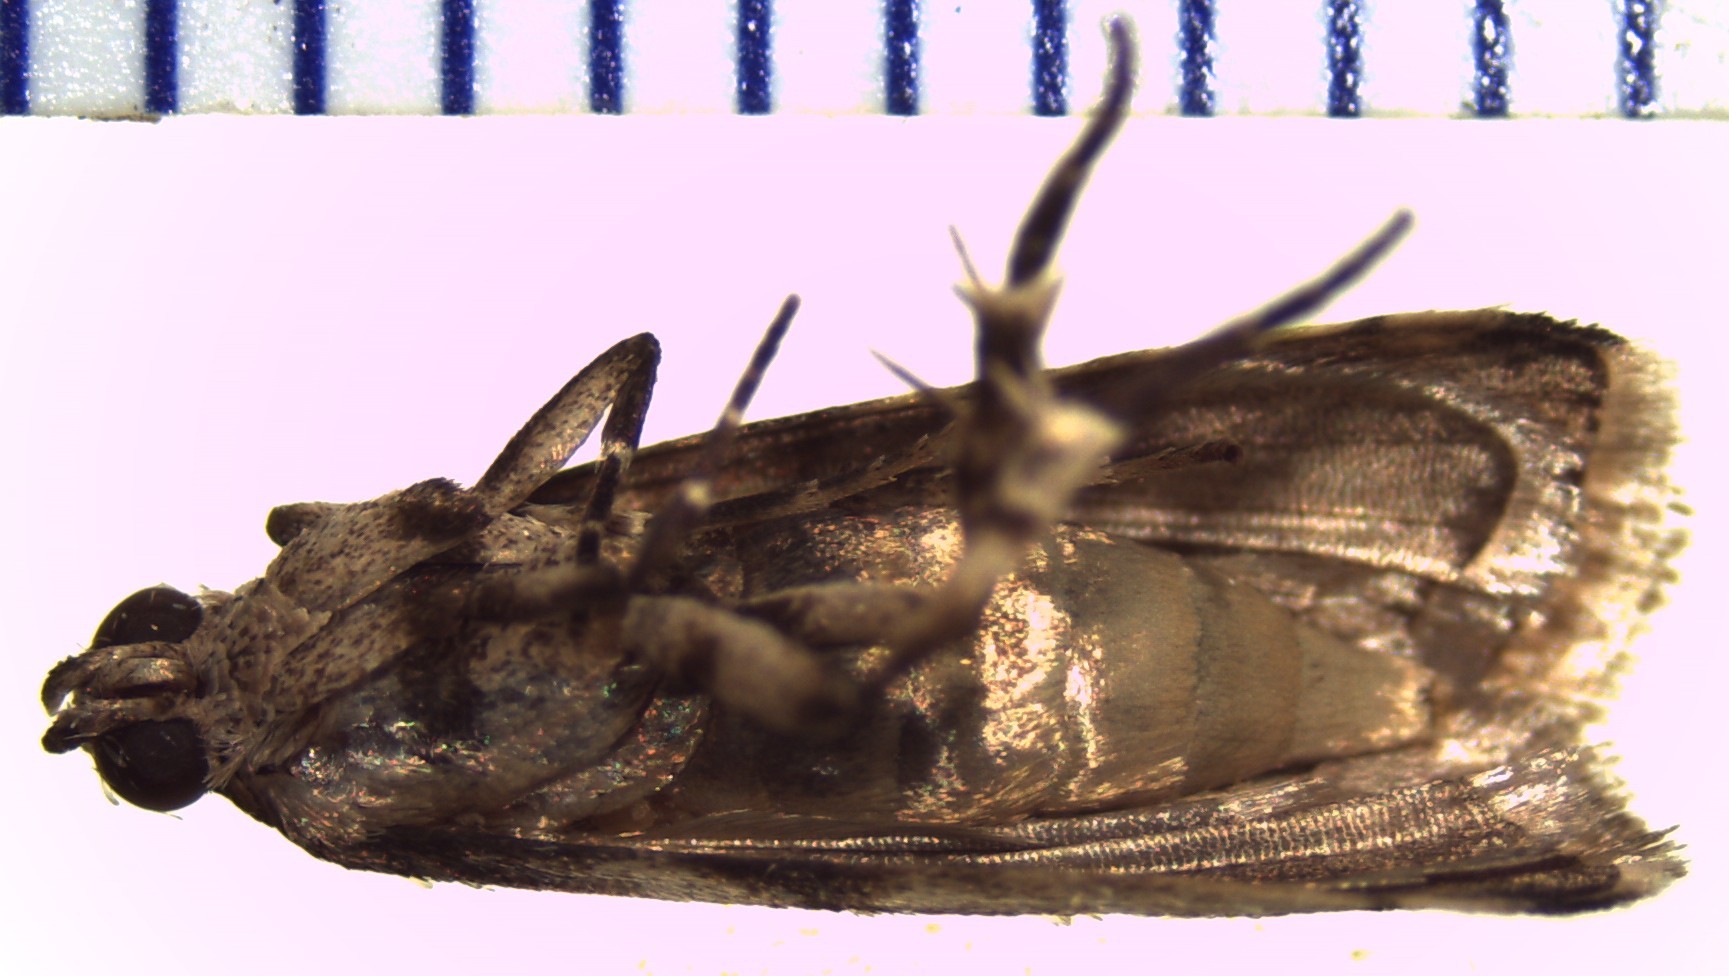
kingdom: Animalia
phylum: Arthropoda
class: Insecta
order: Lepidoptera
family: Pyralidae
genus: Ectomyelois
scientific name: Ectomyelois ceratoniae
